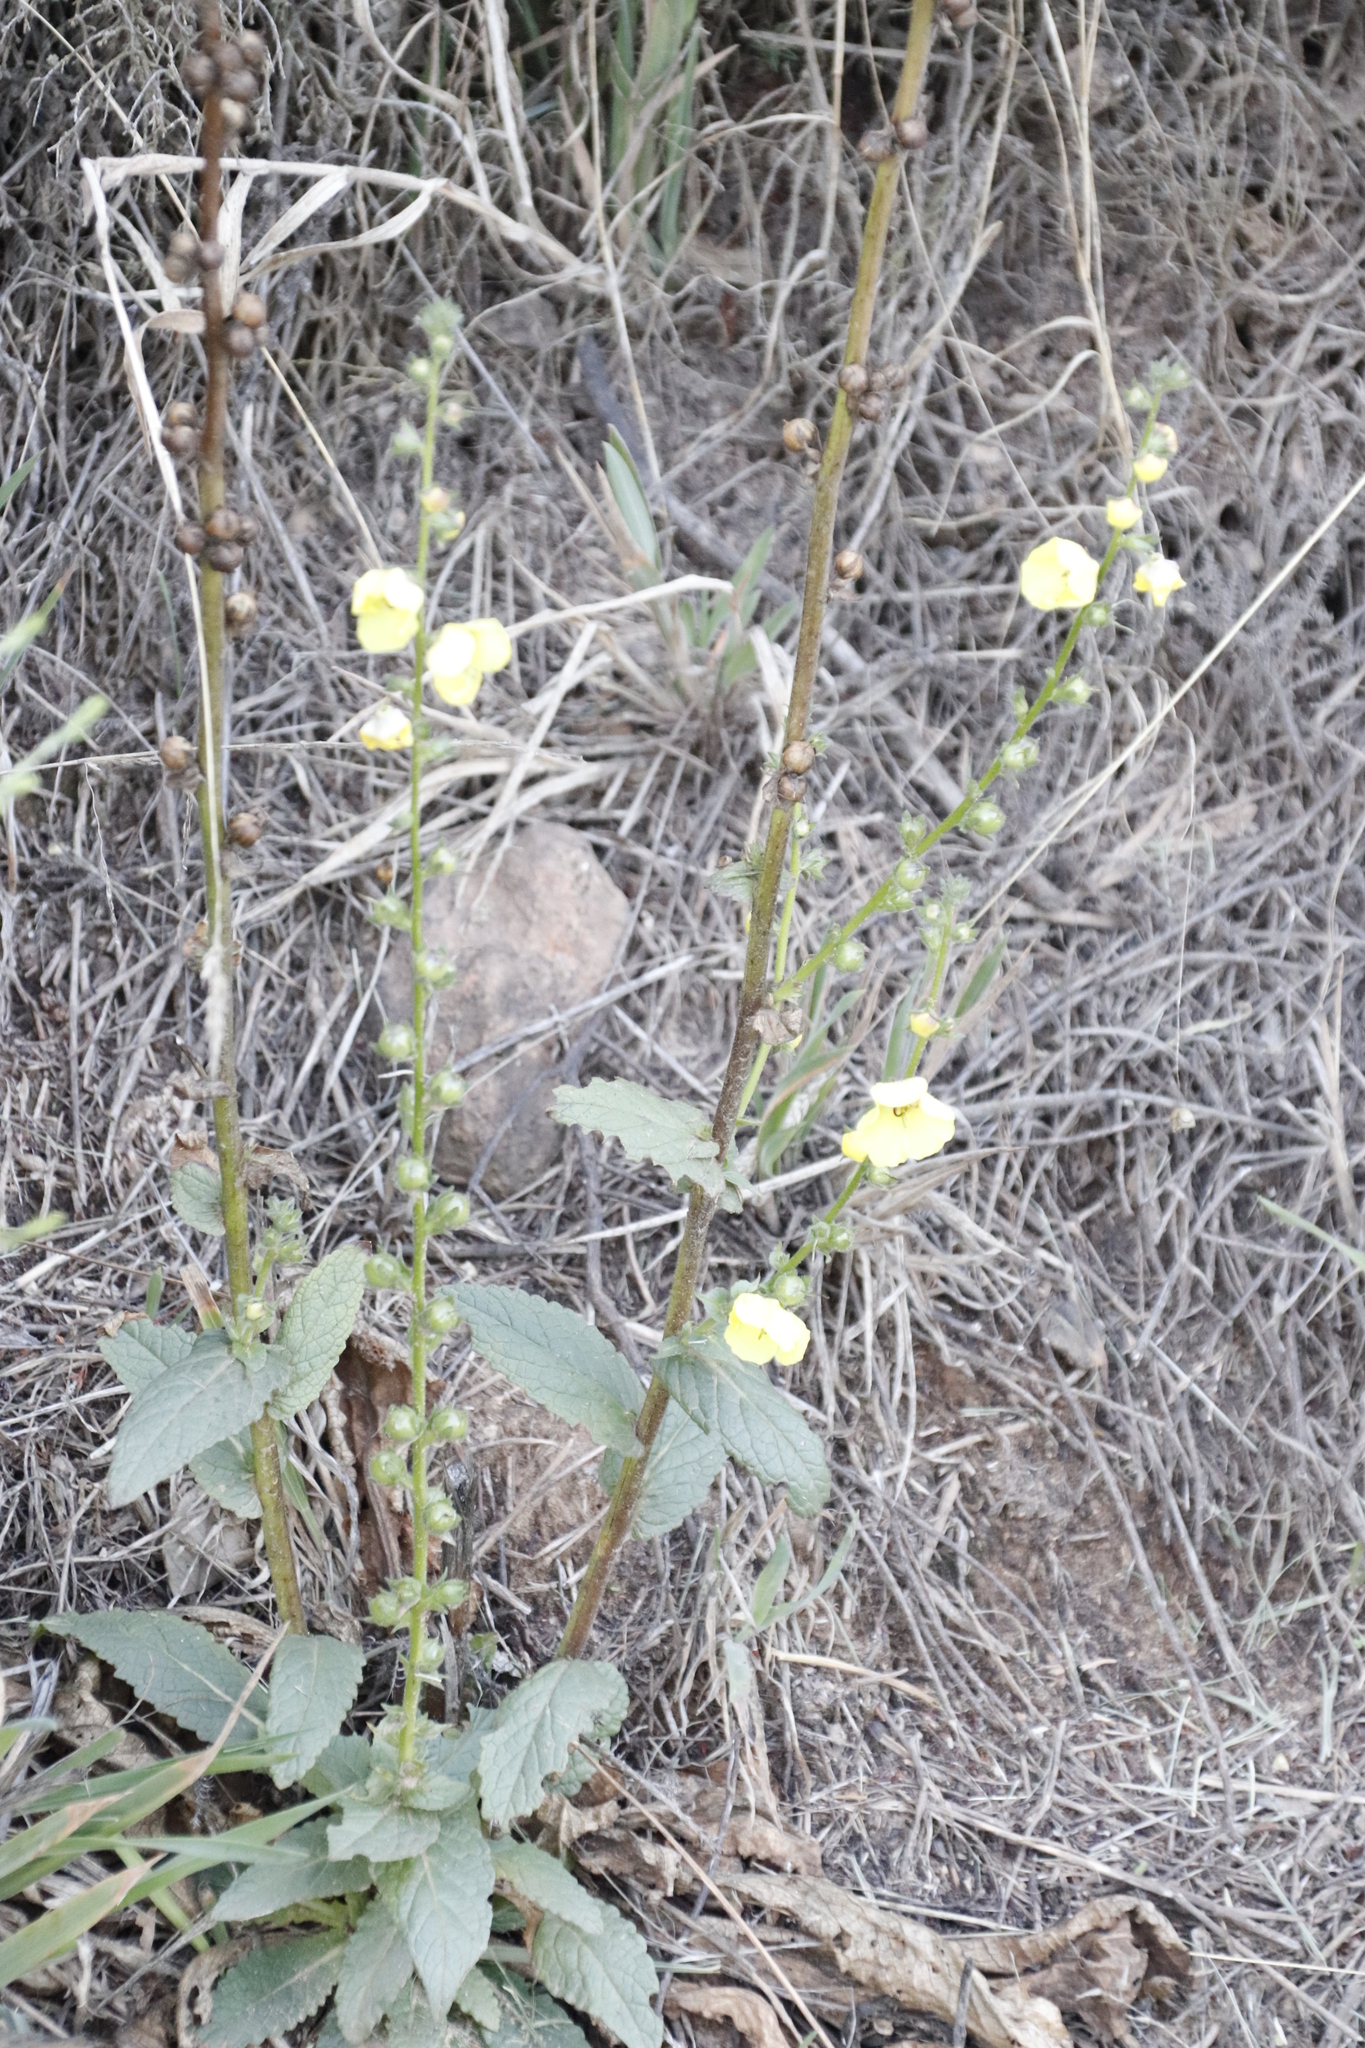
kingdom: Plantae
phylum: Tracheophyta
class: Magnoliopsida
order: Lamiales
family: Scrophulariaceae
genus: Verbascum
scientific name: Verbascum virgatum
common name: Twiggy mullein
